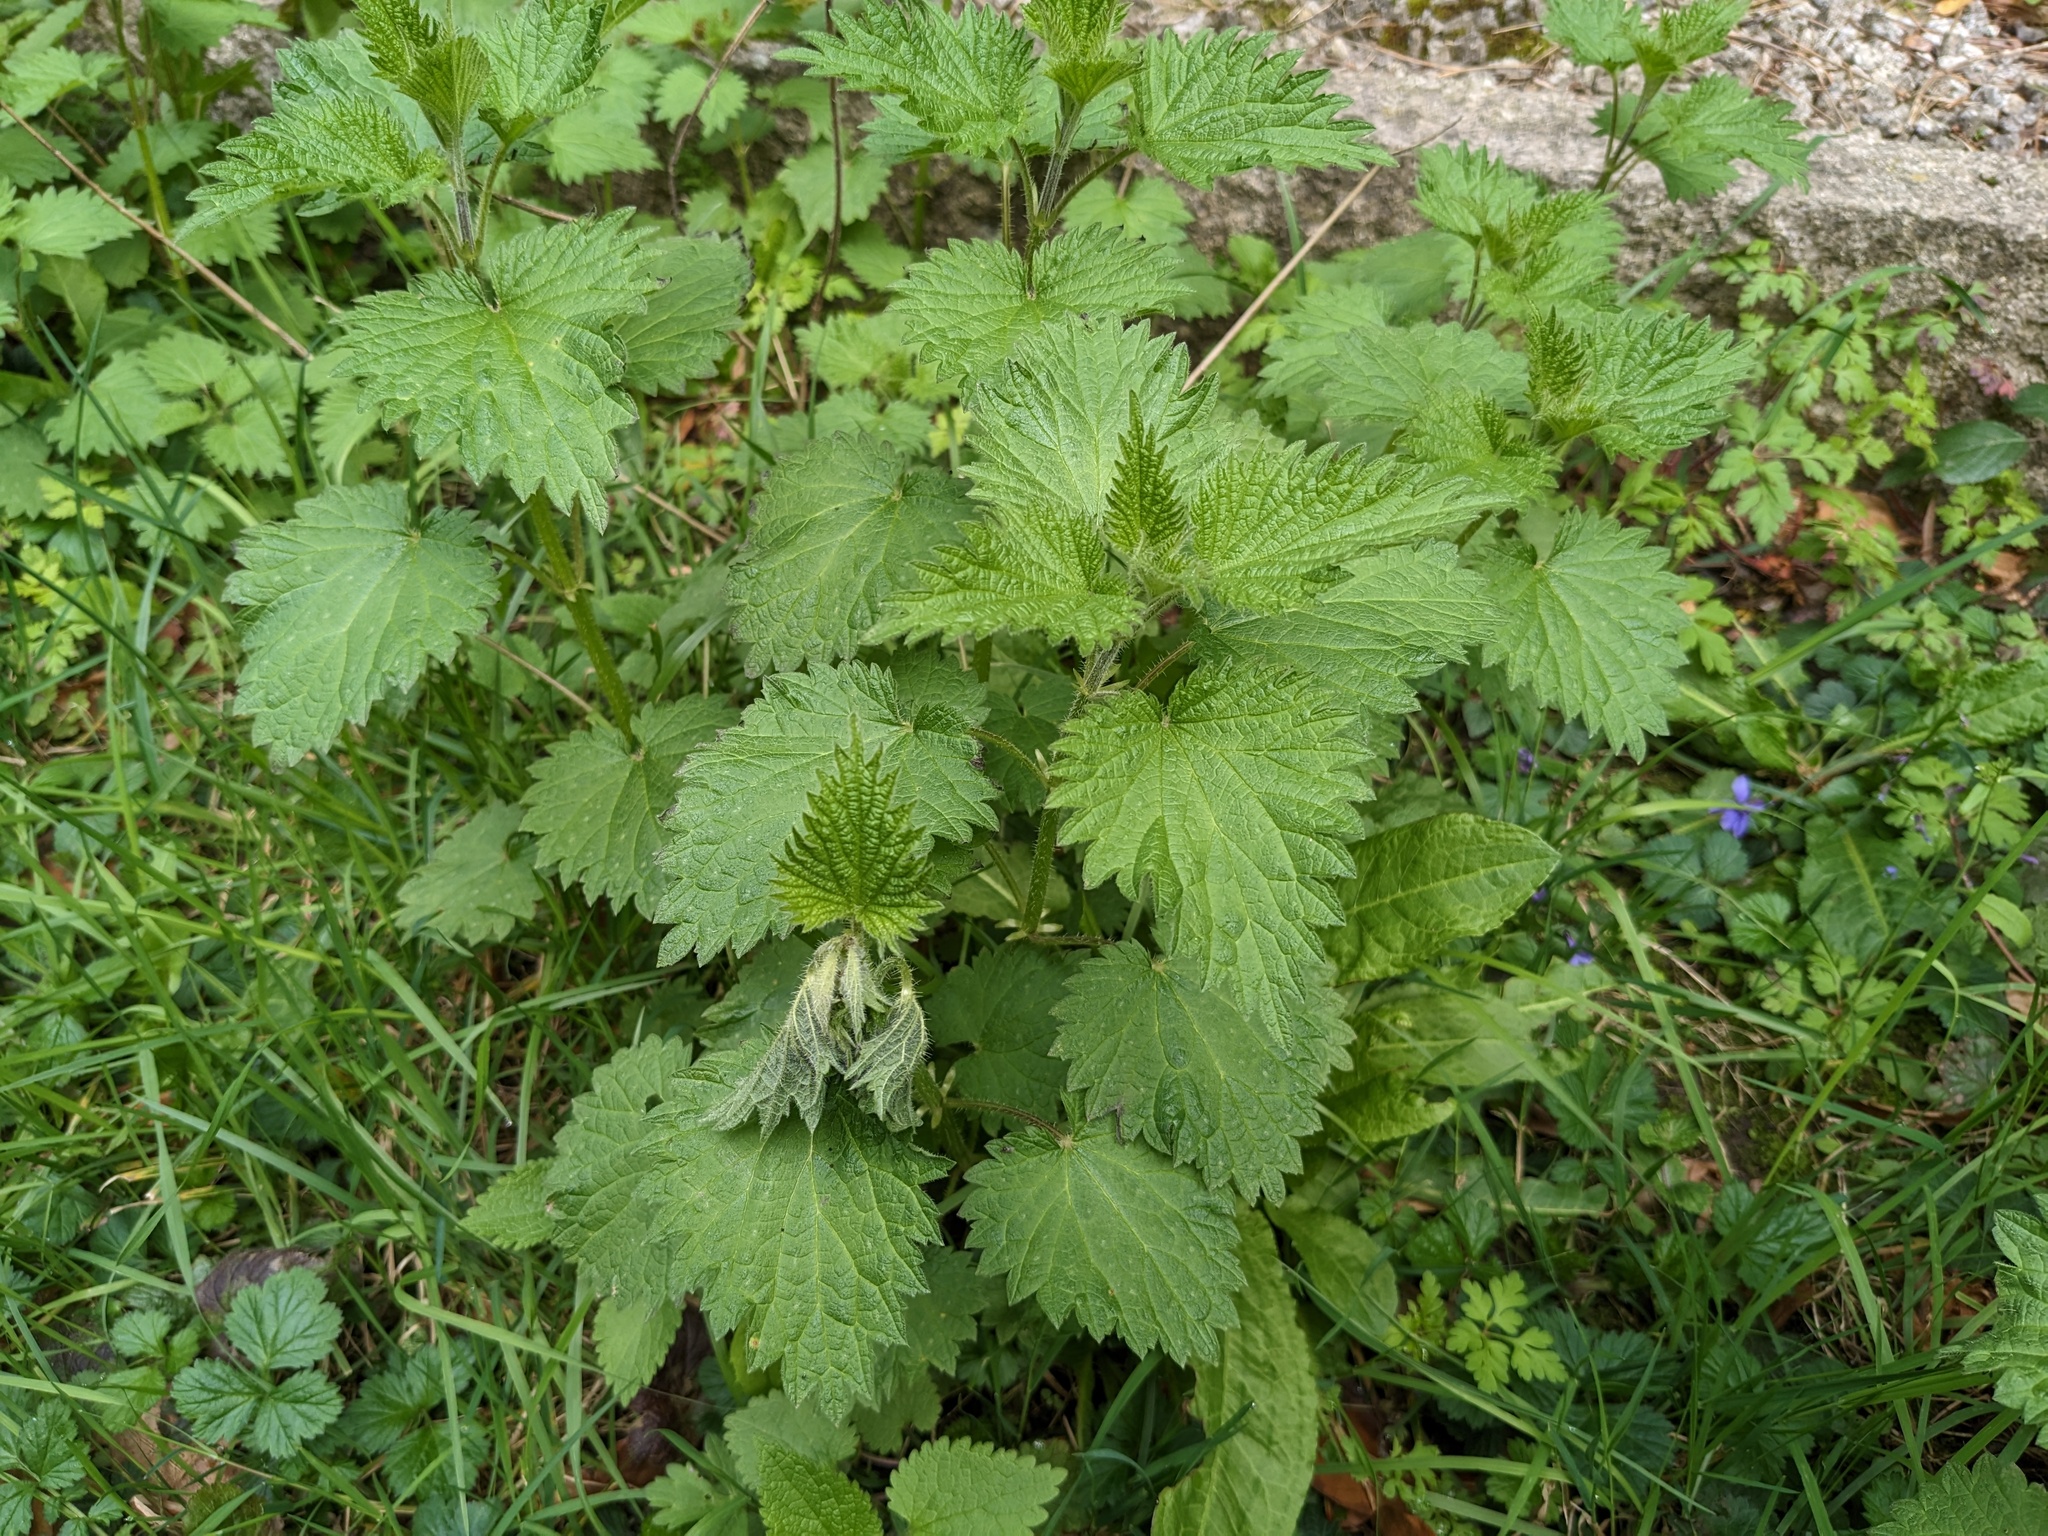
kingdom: Plantae
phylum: Tracheophyta
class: Magnoliopsida
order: Rosales
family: Urticaceae
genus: Urtica
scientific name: Urtica dioica
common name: Common nettle
